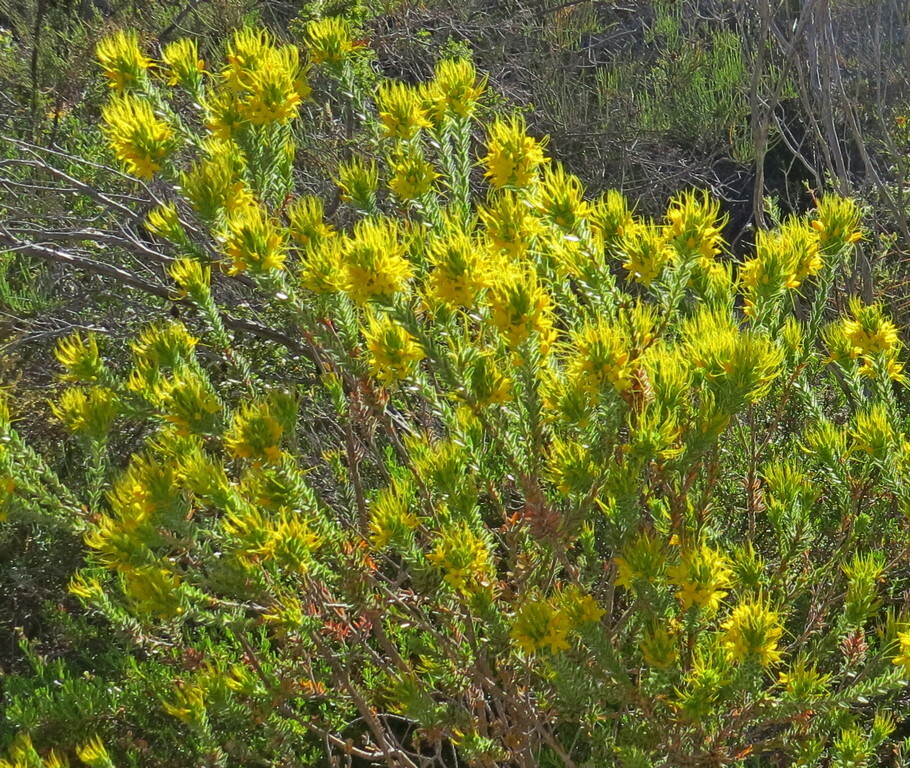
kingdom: Plantae
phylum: Tracheophyta
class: Magnoliopsida
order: Myrtales
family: Myrtaceae
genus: Calytrix
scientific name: Calytrix aurea
